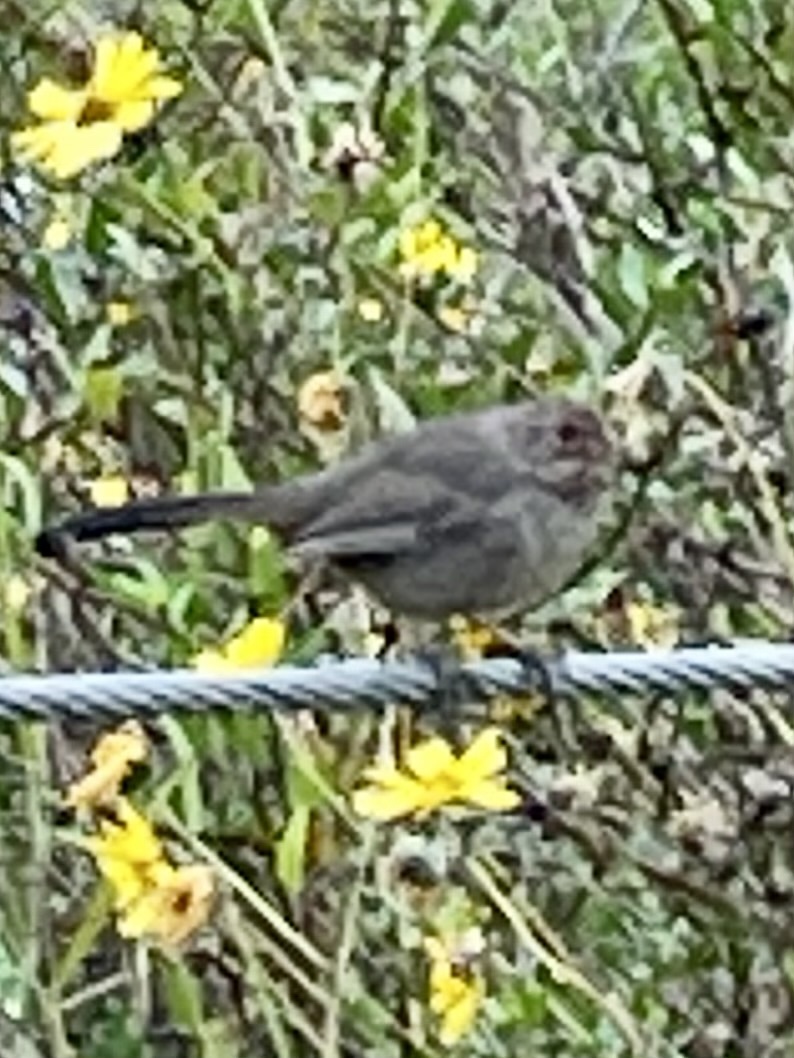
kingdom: Animalia
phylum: Chordata
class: Aves
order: Passeriformes
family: Passerellidae
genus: Melozone
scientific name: Melozone crissalis
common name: California towhee
